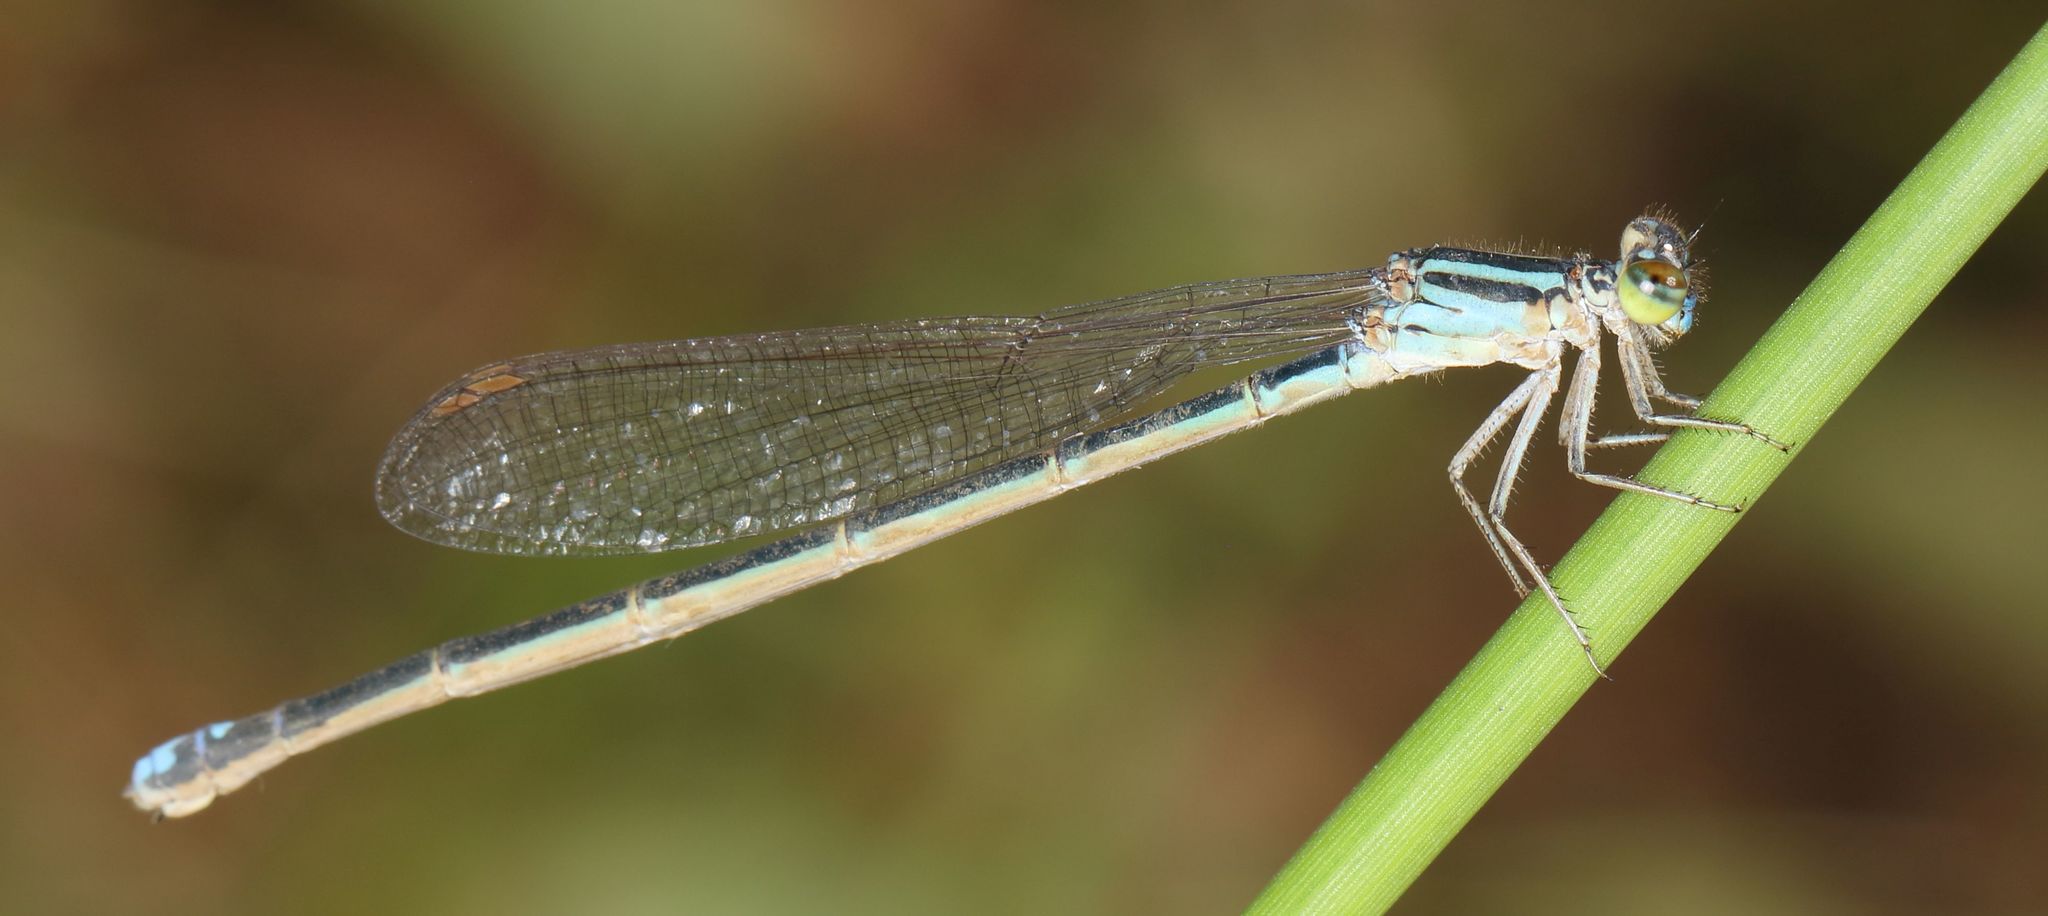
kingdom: Animalia
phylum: Arthropoda
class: Insecta
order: Odonata
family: Coenagrionidae
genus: Pseudagrion
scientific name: Pseudagrion kersteni
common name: Powder-faced sprite
